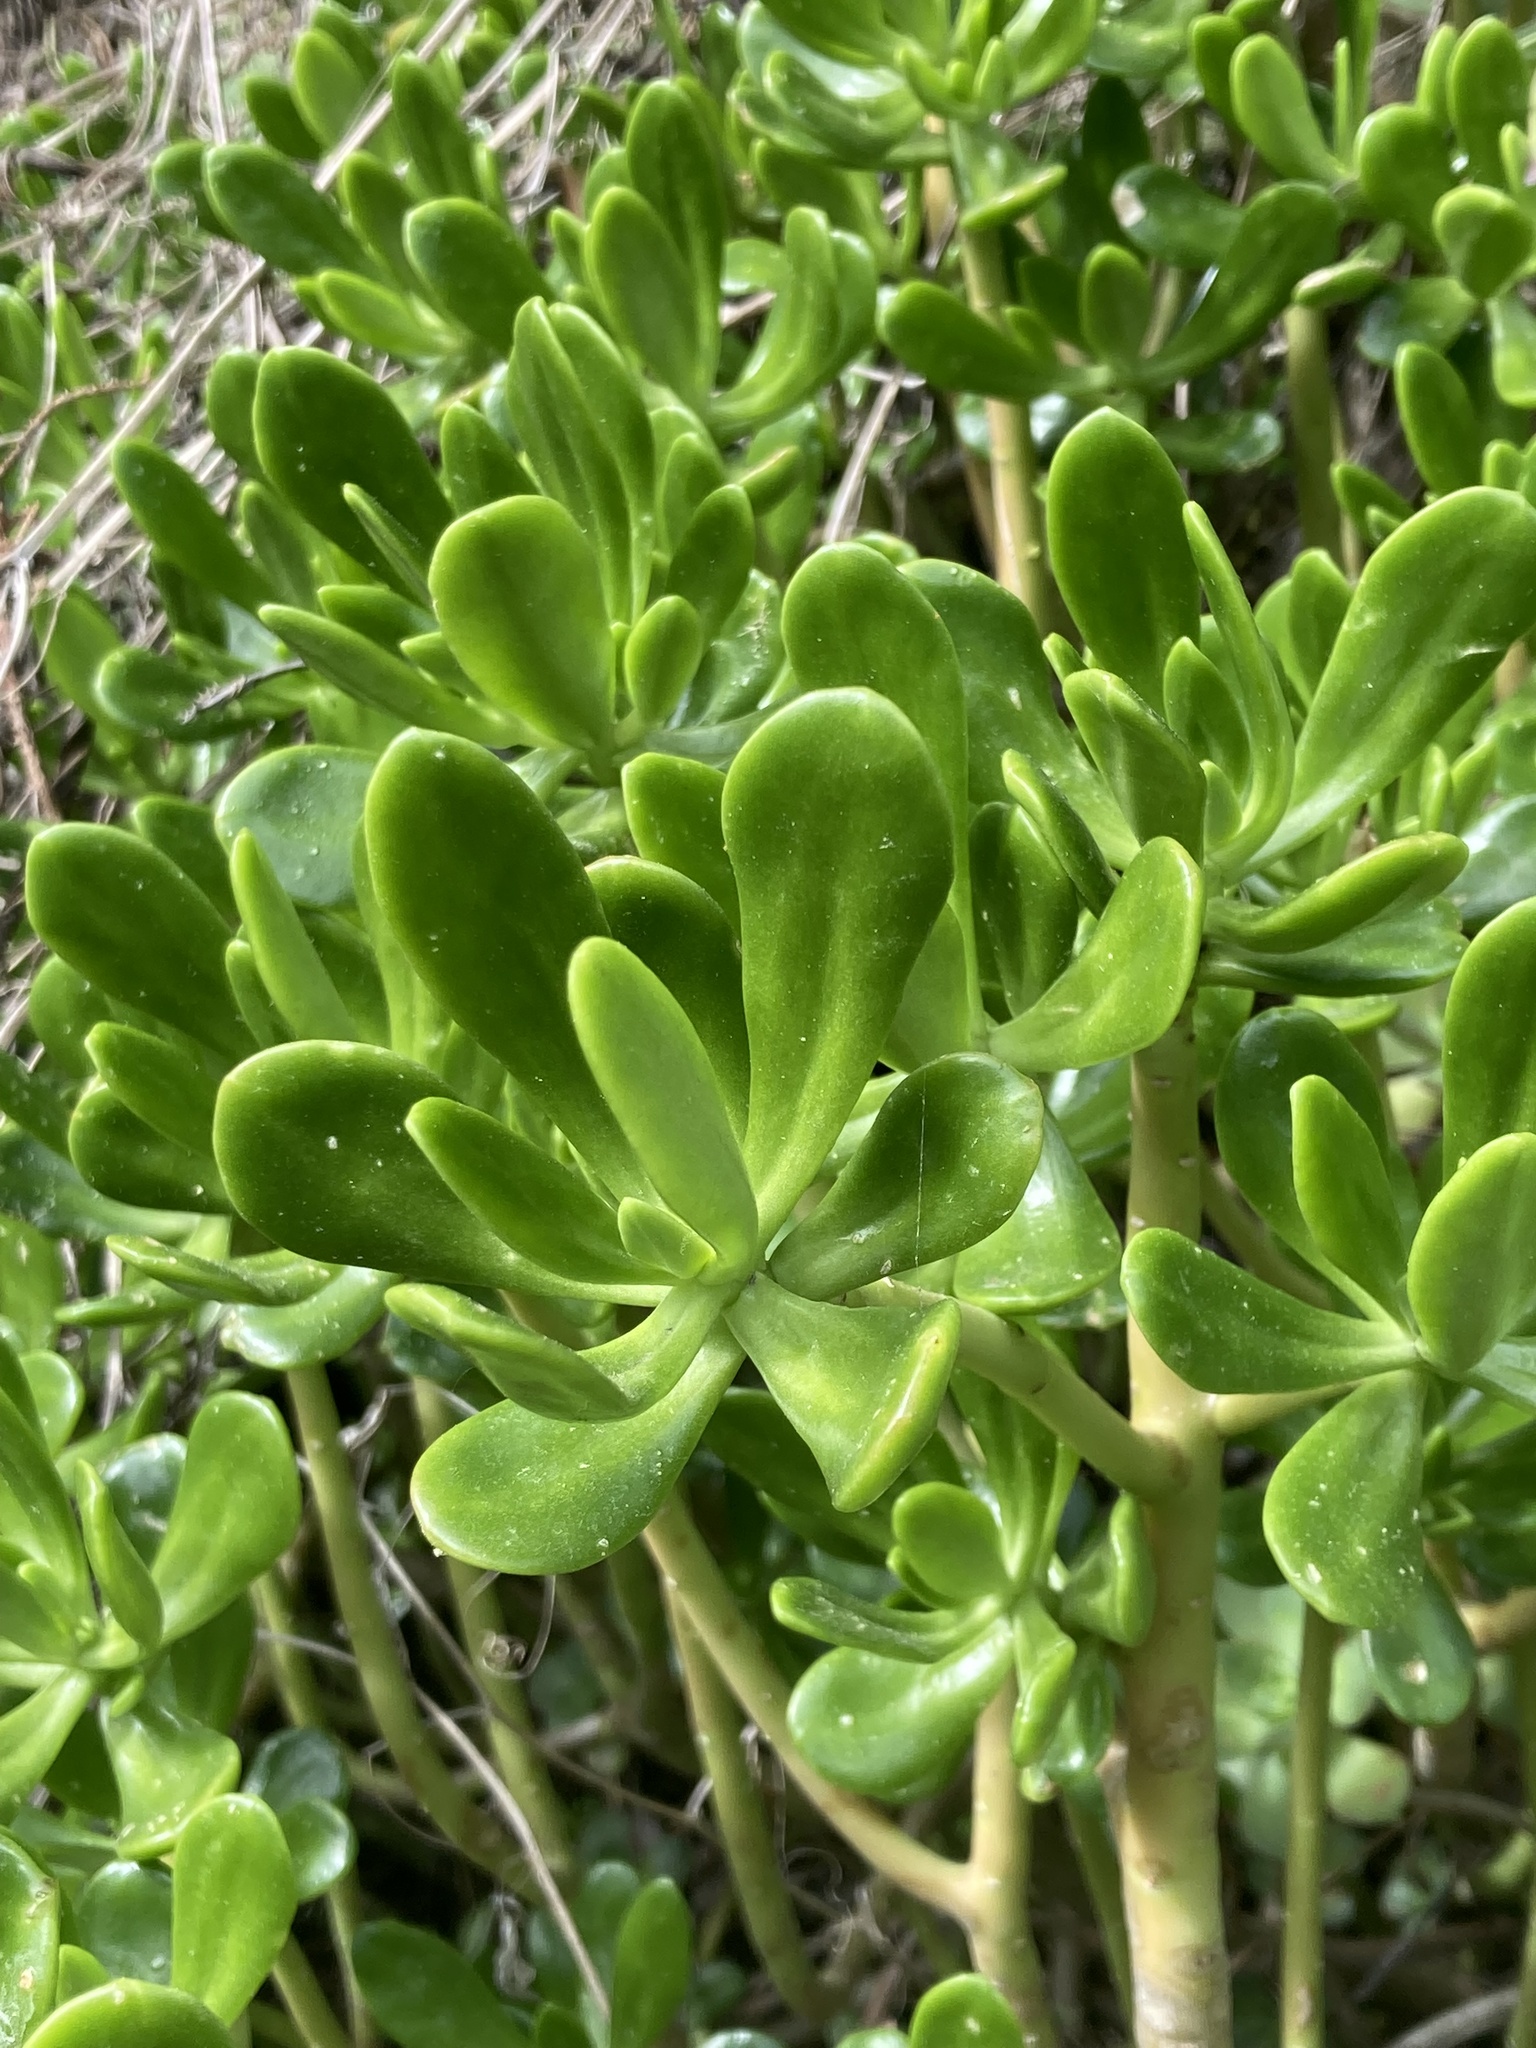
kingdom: Plantae
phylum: Tracheophyta
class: Magnoliopsida
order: Saxifragales
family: Crassulaceae
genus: Sedum
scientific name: Sedum praealtum
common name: Greater mexican-stonecrop
